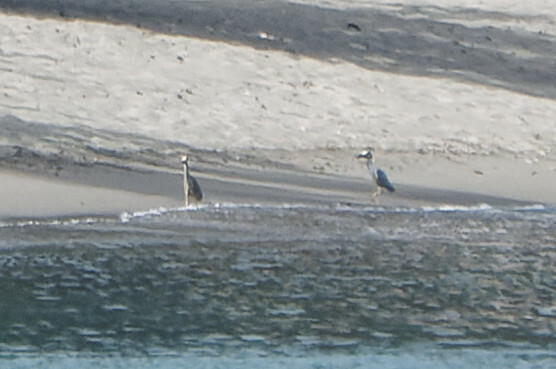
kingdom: Animalia
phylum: Chordata
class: Aves
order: Pelecaniformes
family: Ardeidae
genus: Nyctanassa
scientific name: Nyctanassa violacea
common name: Yellow-crowned night heron
